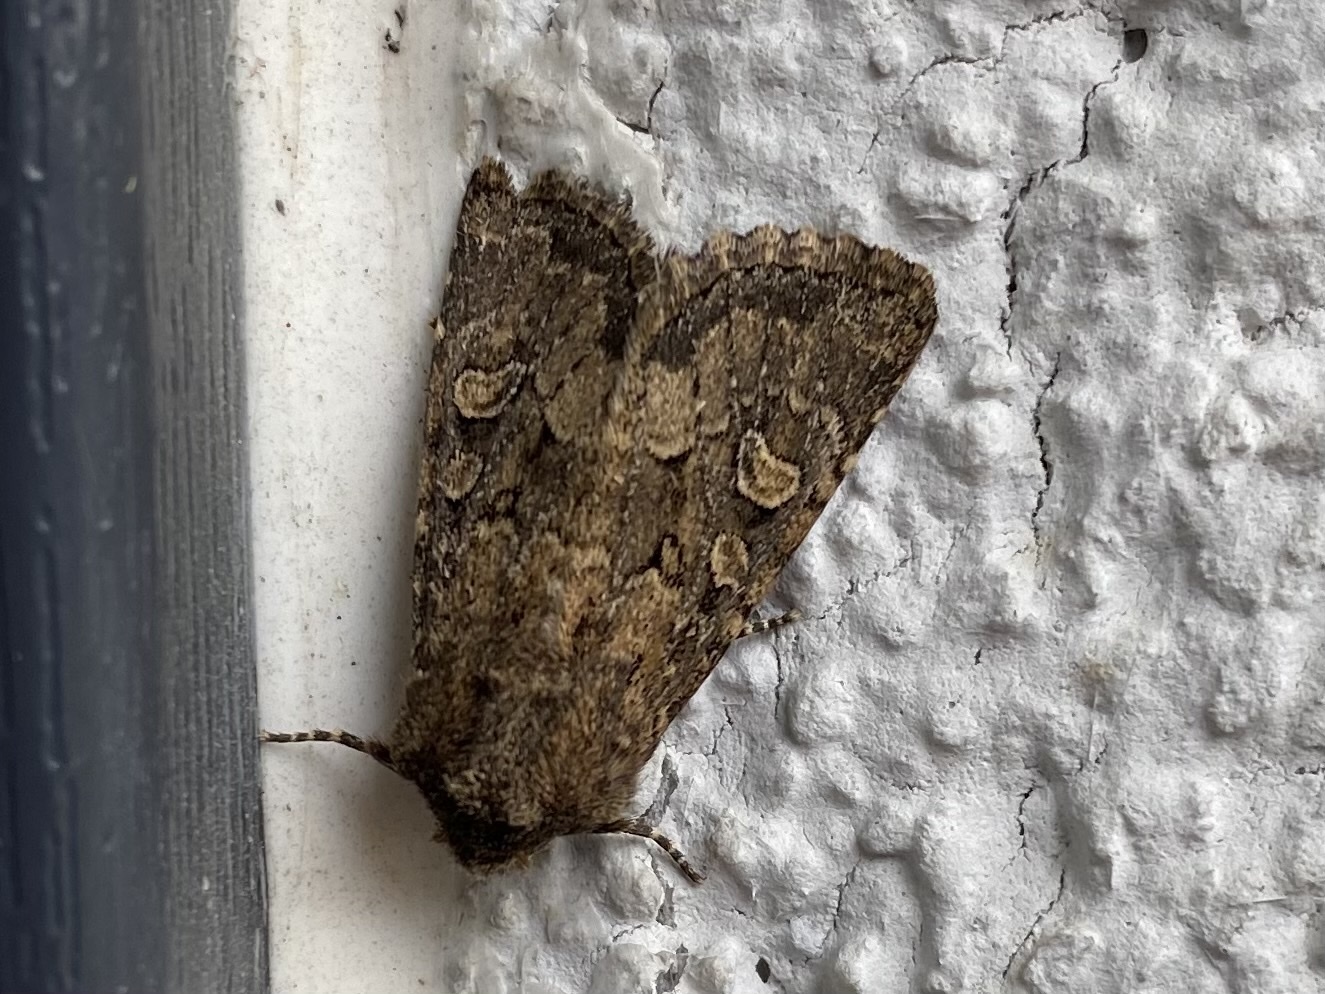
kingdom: Animalia
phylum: Arthropoda
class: Insecta
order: Lepidoptera
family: Noctuidae
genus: Luperina
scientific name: Luperina testacea
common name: Flounced rustic
